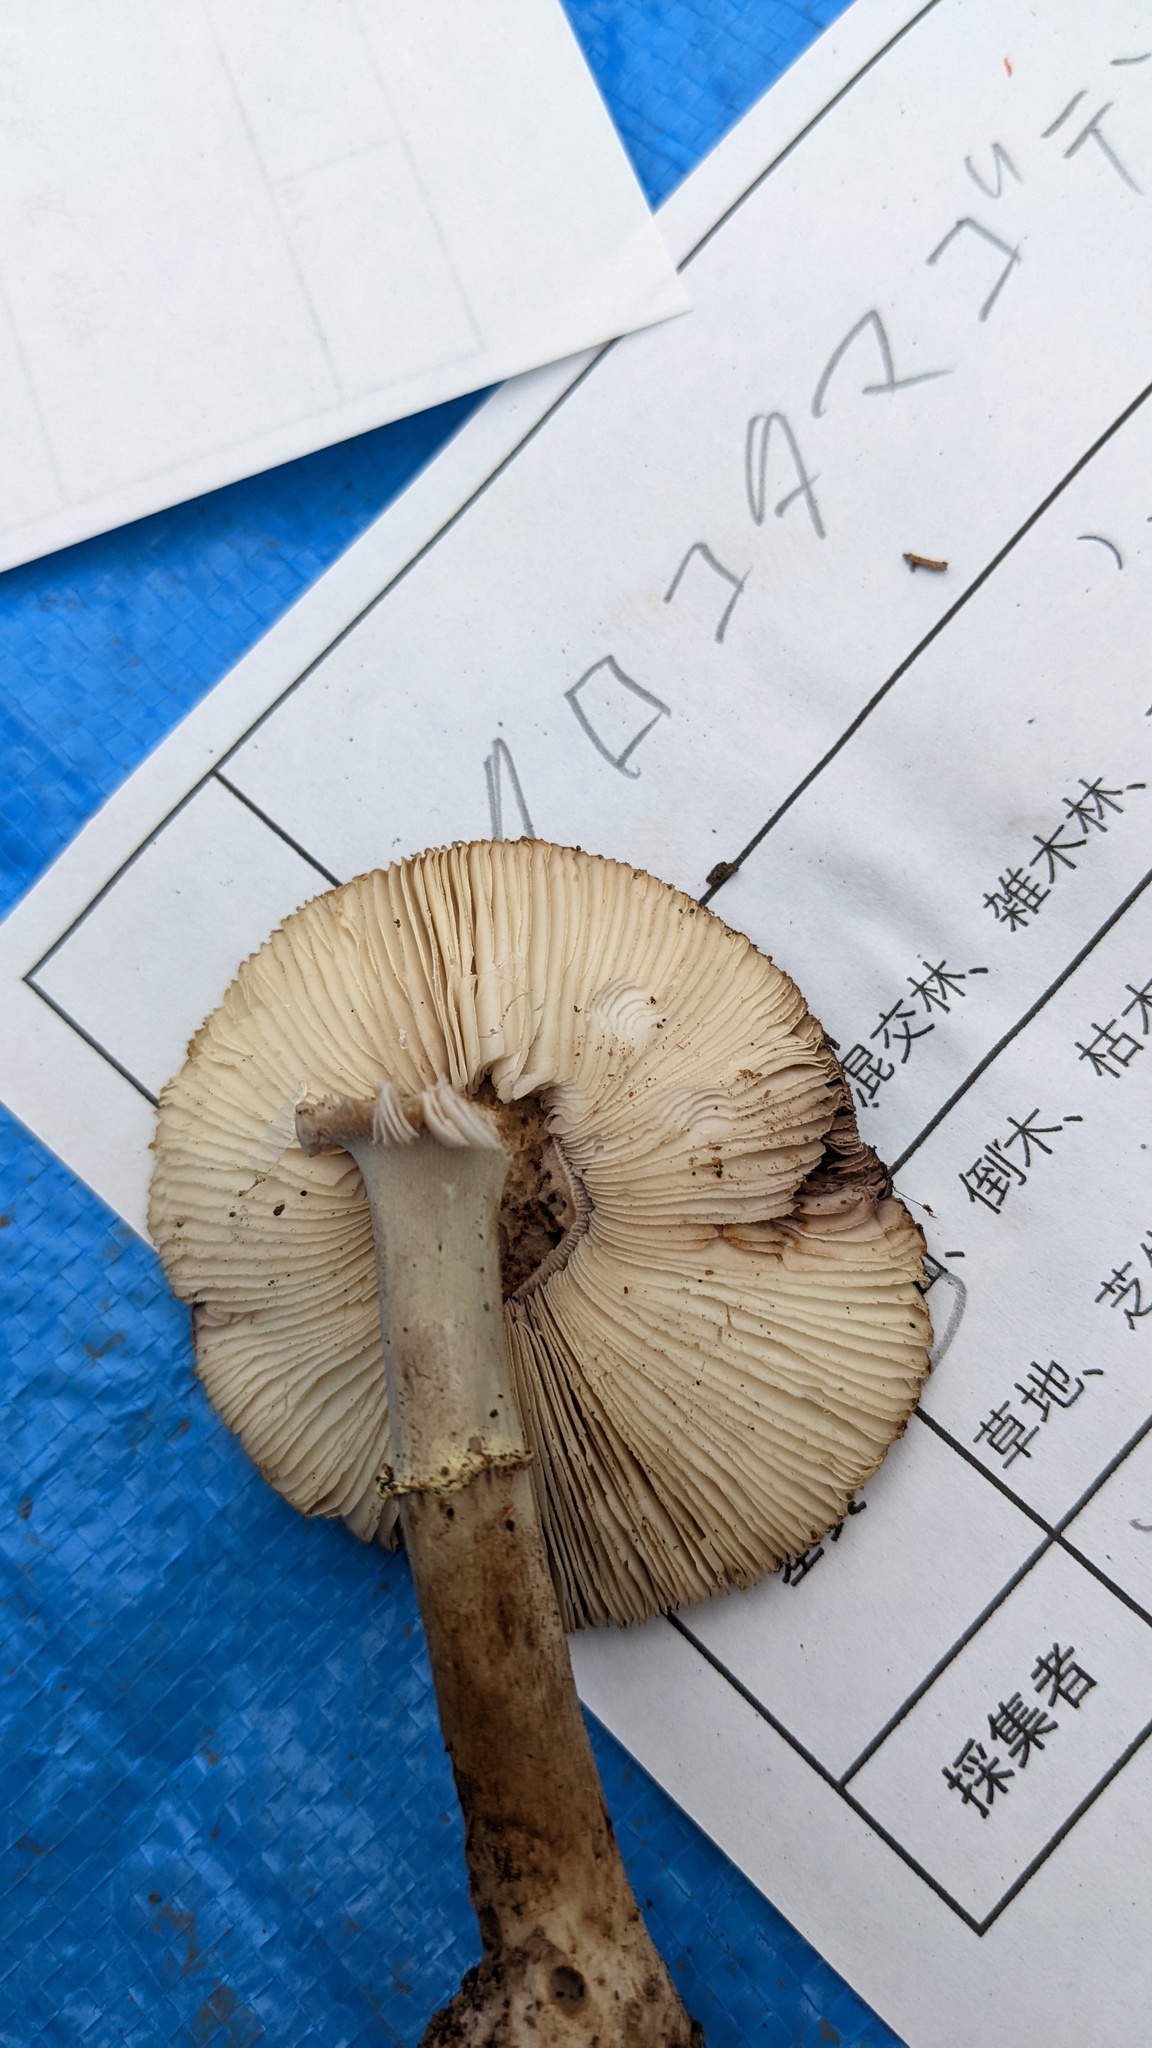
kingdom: Fungi
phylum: Basidiomycota
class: Agaricomycetes
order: Agaricales
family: Amanitaceae
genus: Amanita
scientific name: Amanita citrina
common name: False death-cap
